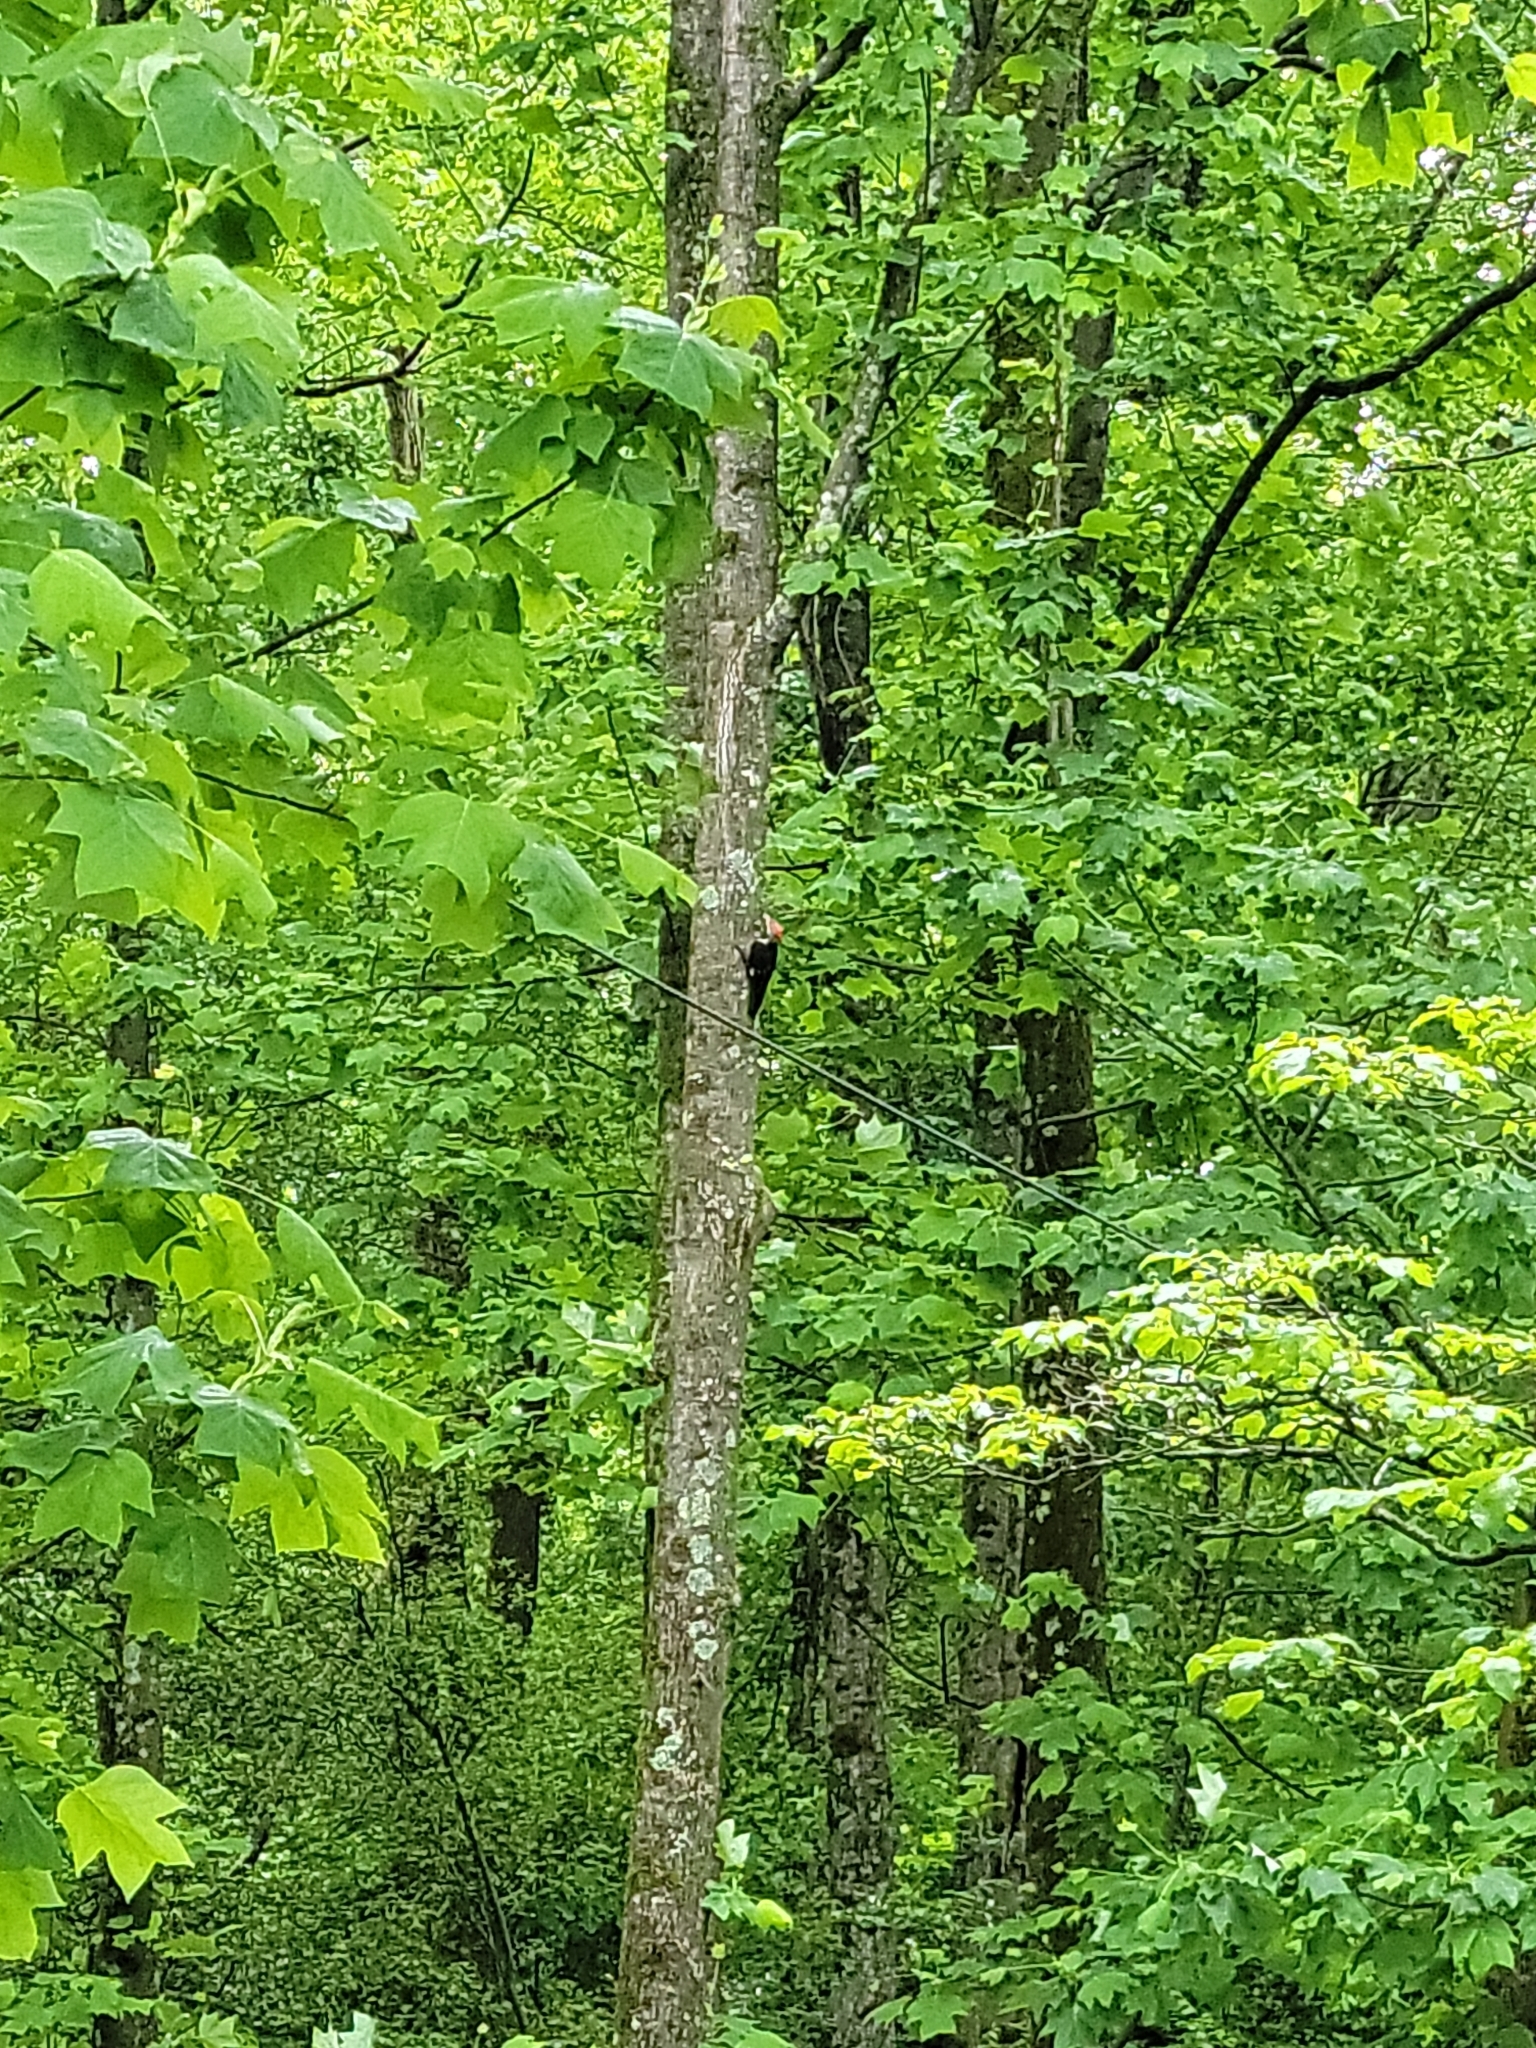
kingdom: Animalia
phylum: Chordata
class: Aves
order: Piciformes
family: Picidae
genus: Dryocopus
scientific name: Dryocopus pileatus
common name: Pileated woodpecker
